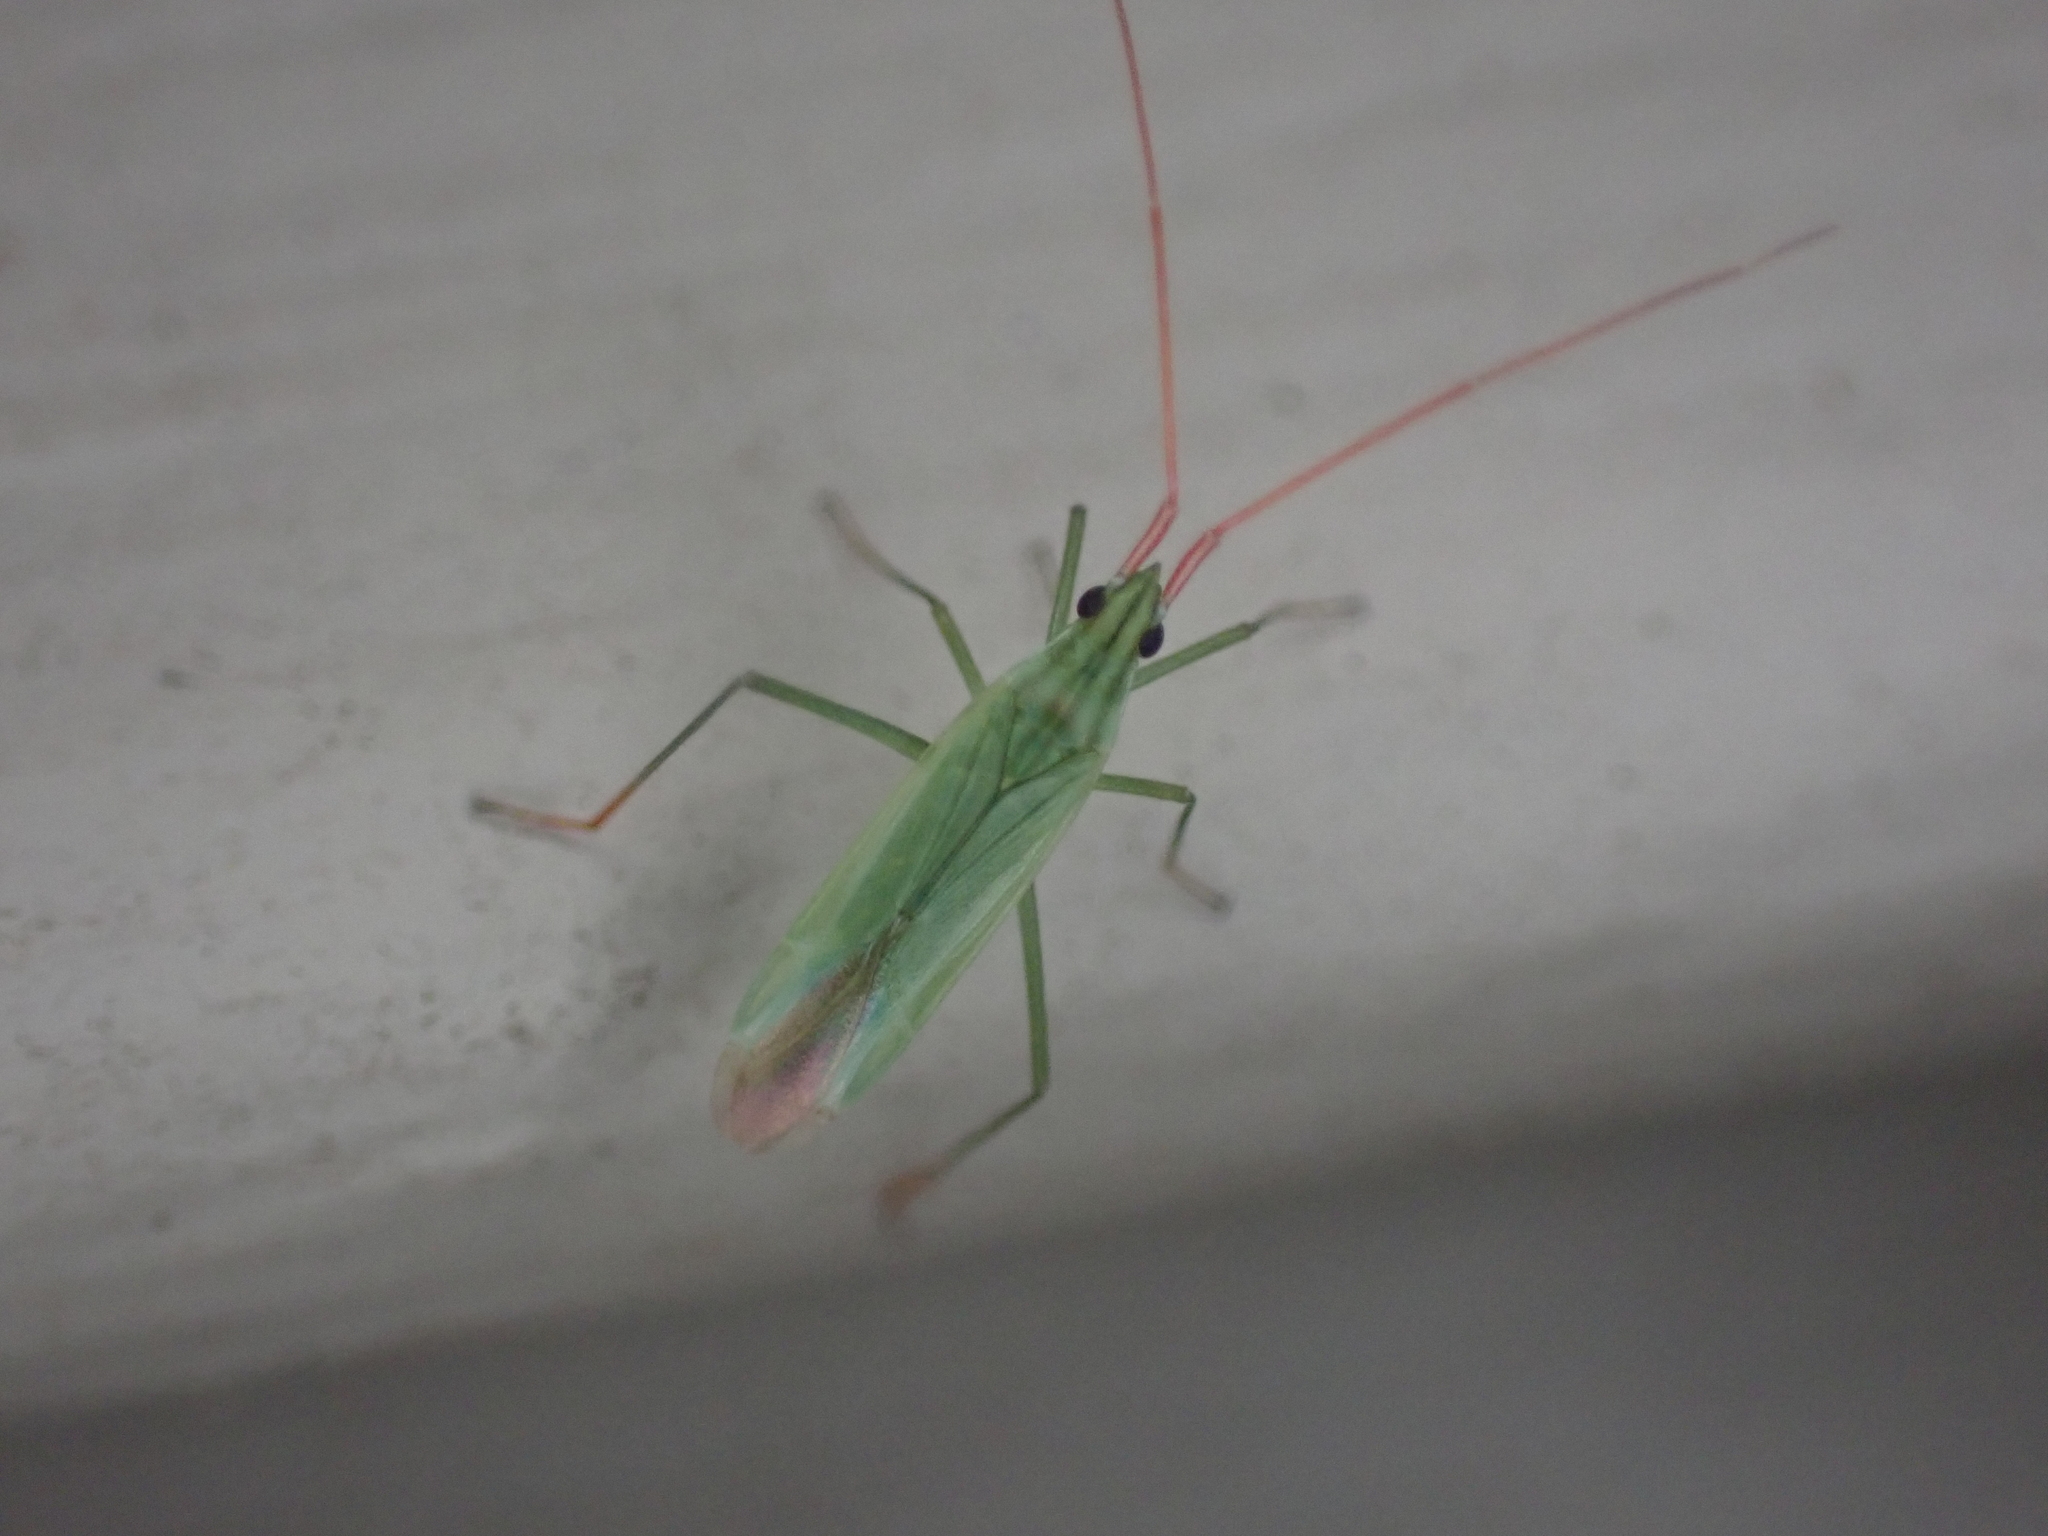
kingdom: Animalia
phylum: Arthropoda
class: Insecta
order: Hemiptera
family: Miridae
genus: Trigonotylus
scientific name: Trigonotylus caelestialium
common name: Rice leaf bug
